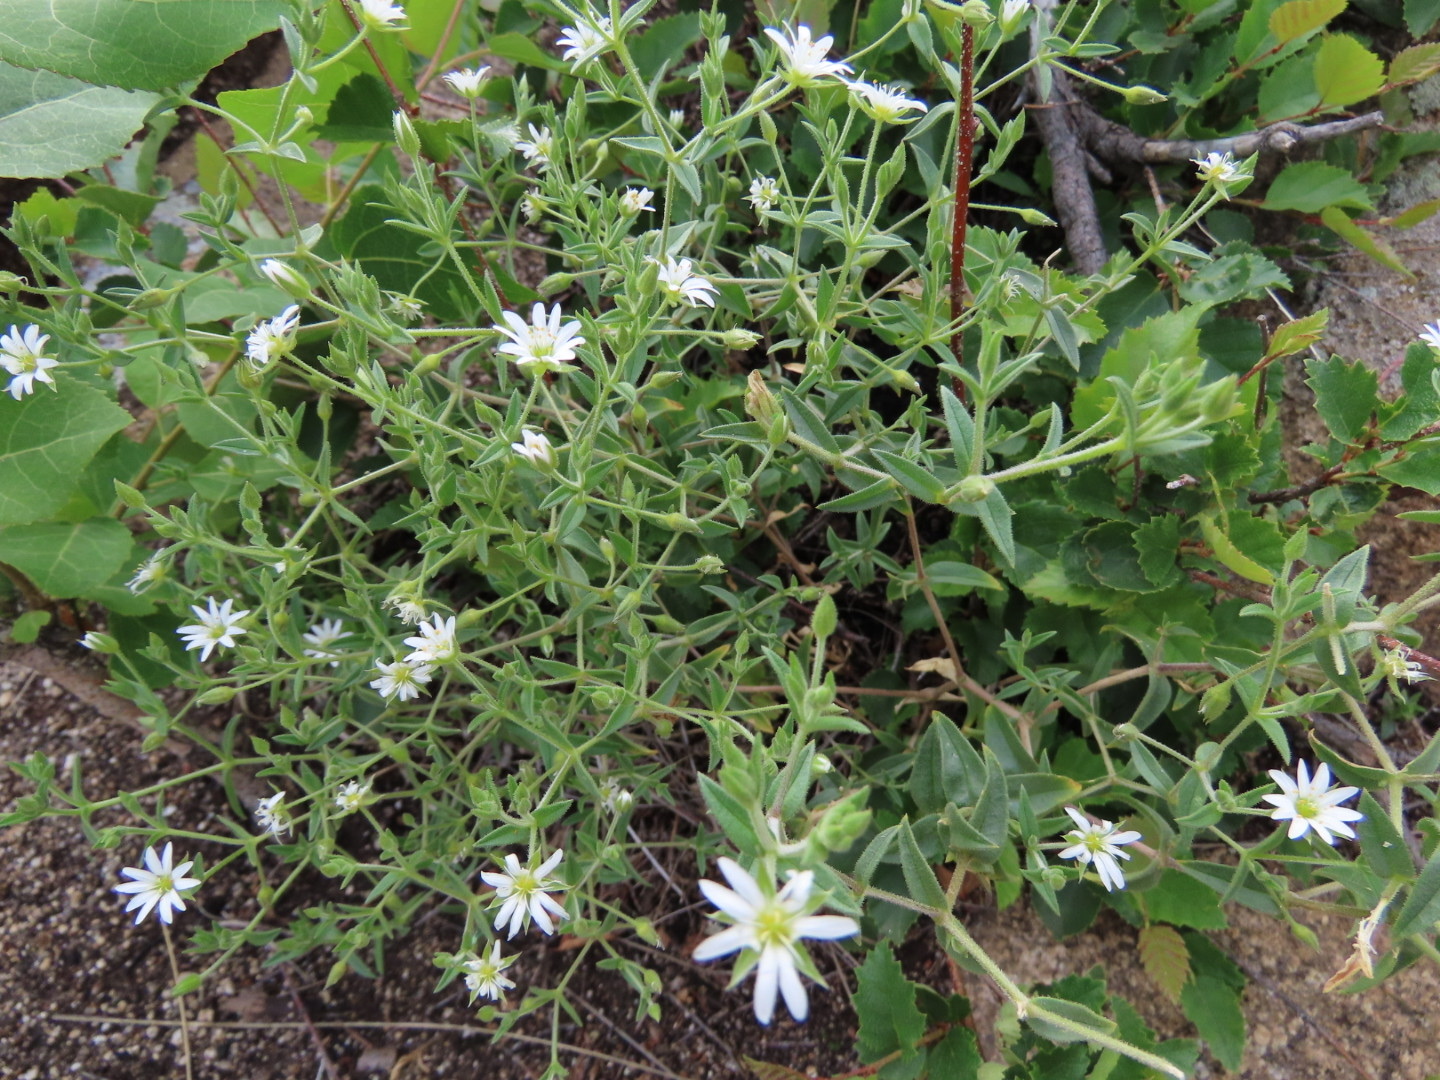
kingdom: Plantae
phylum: Tracheophyta
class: Magnoliopsida
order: Caryophyllales
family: Caryophyllaceae
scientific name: Caryophyllaceae
